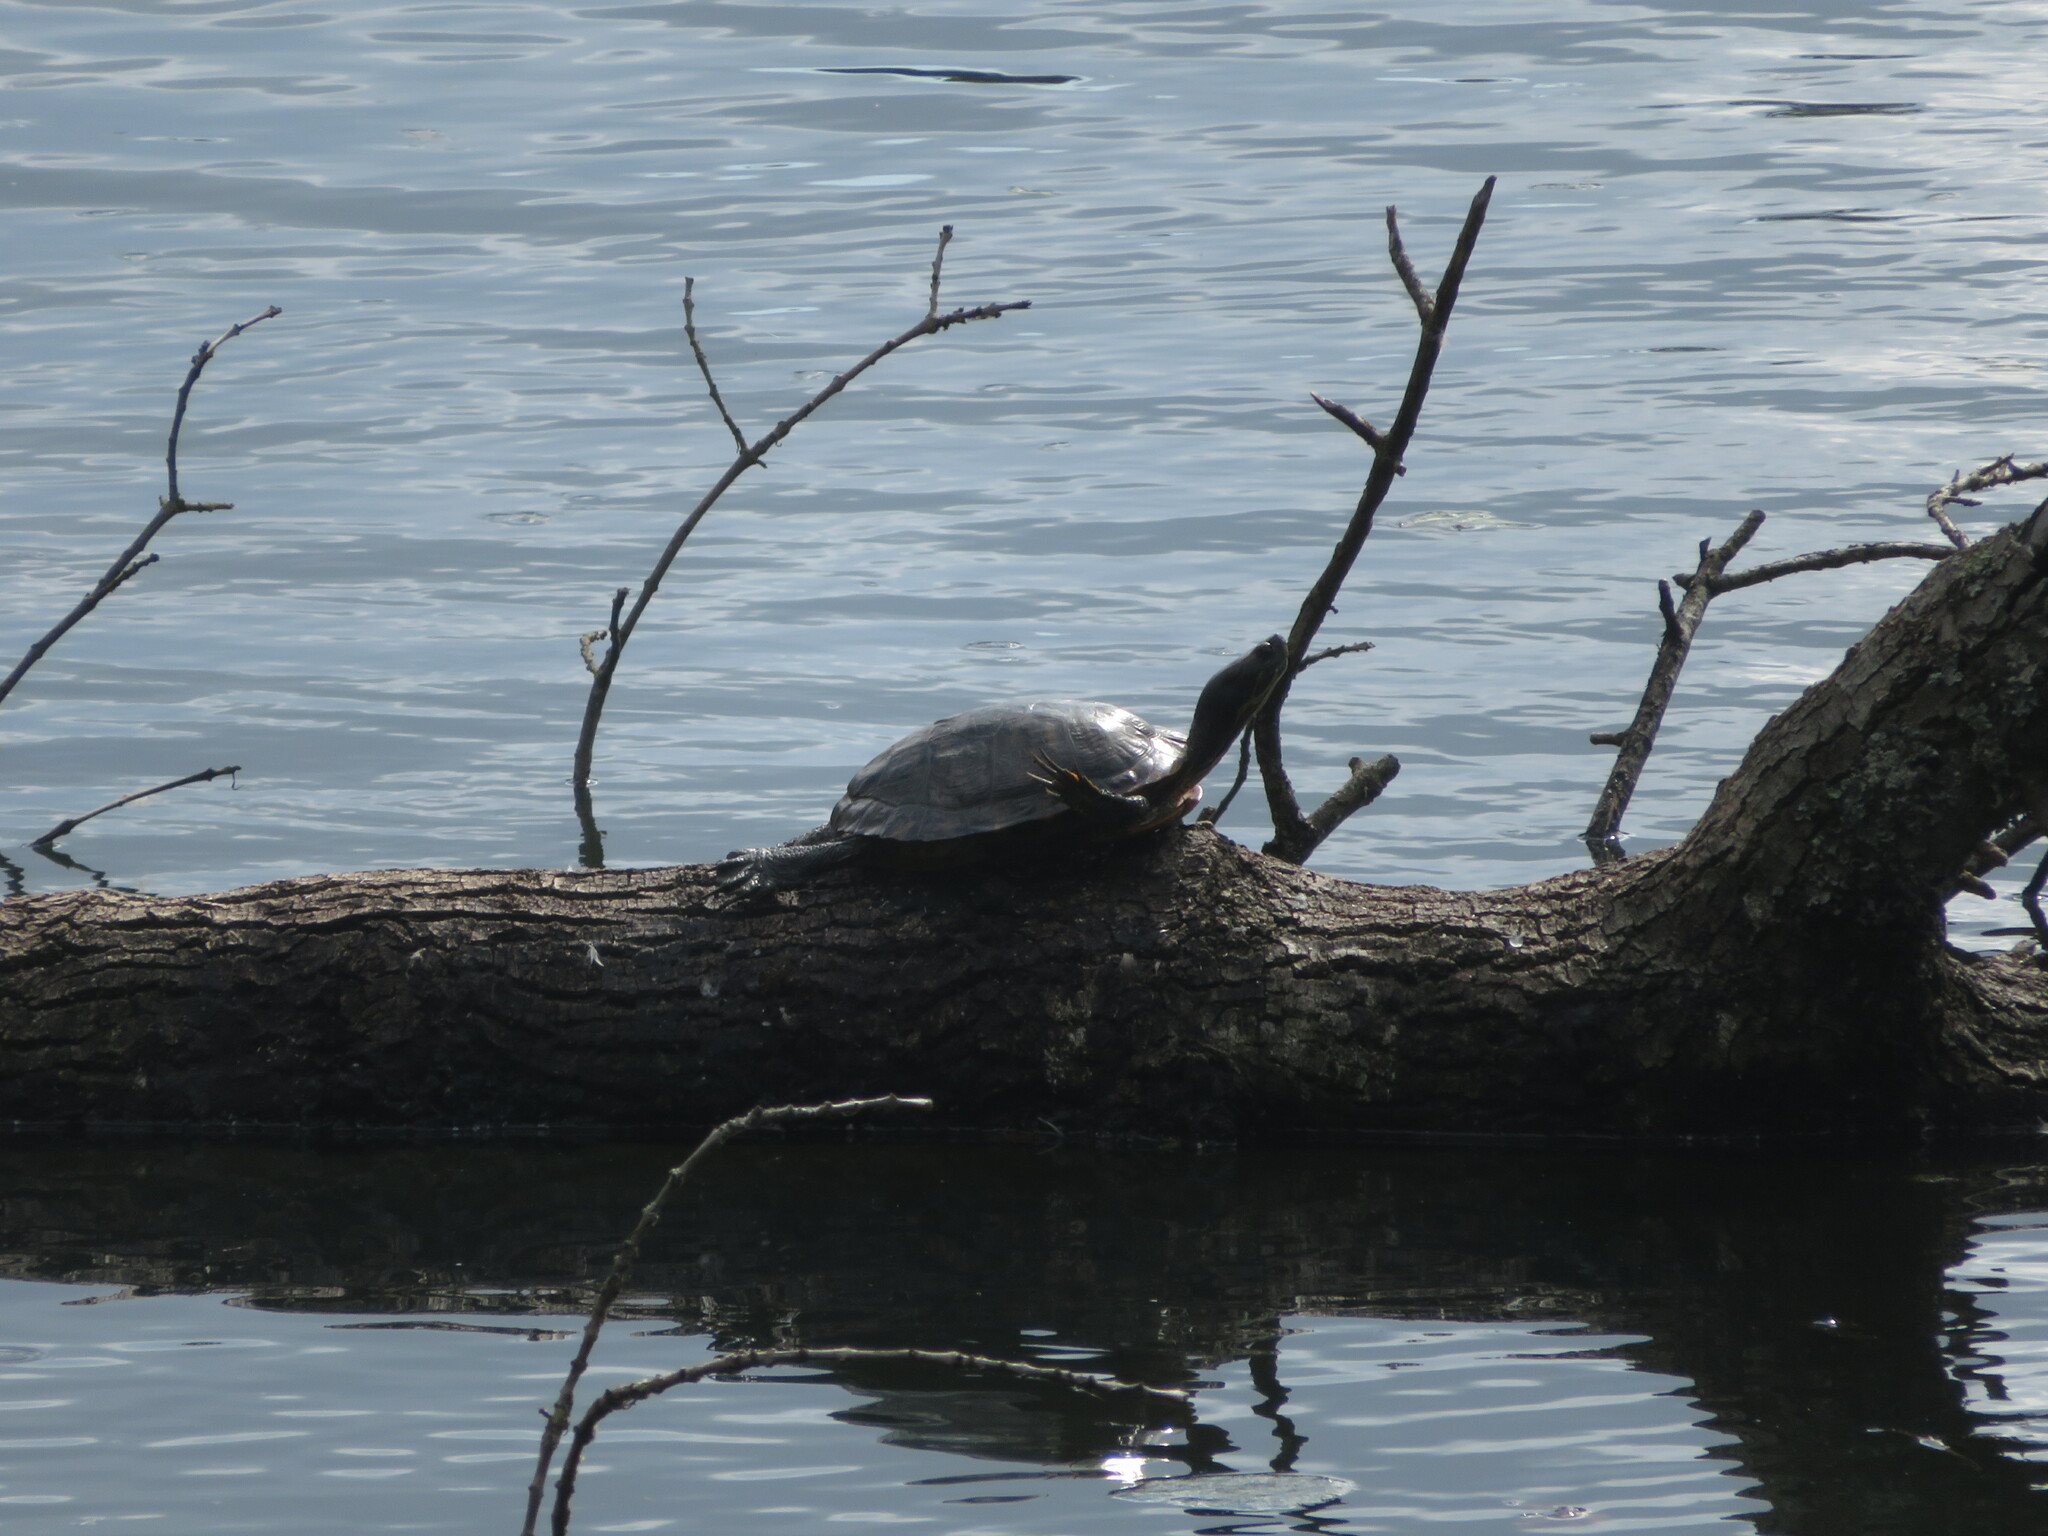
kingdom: Animalia
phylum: Chordata
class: Testudines
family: Emydidae
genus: Trachemys
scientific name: Trachemys scripta
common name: Slider
